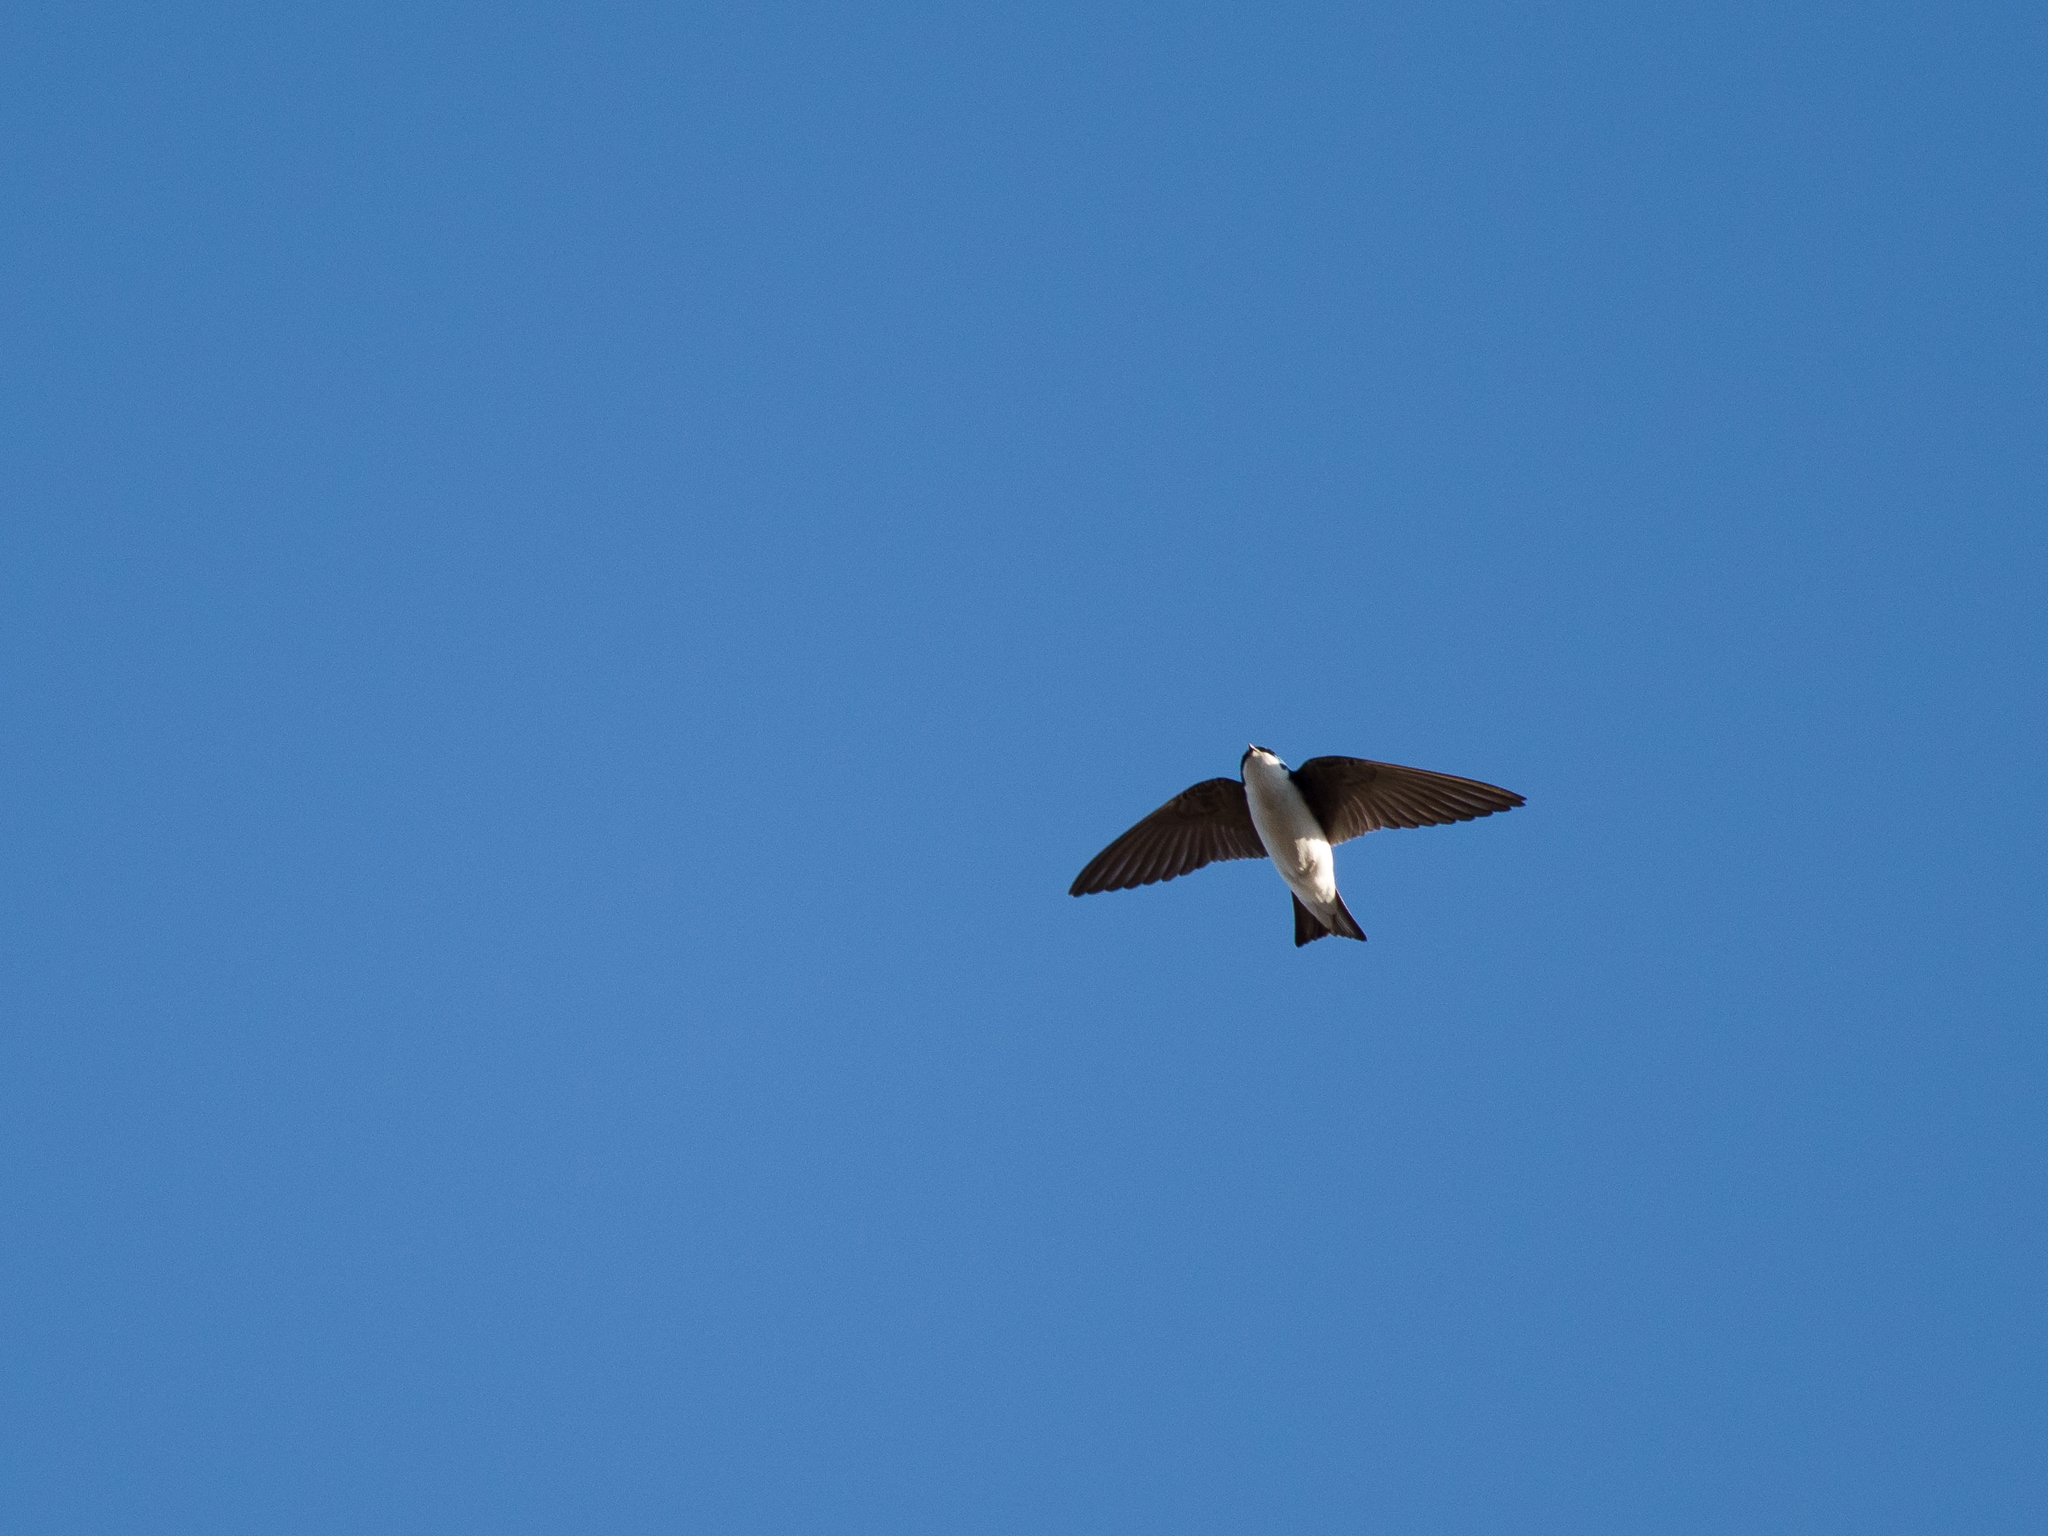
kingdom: Animalia
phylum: Chordata
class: Aves
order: Passeriformes
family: Hirundinidae
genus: Tachycineta
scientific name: Tachycineta bicolor
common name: Tree swallow
